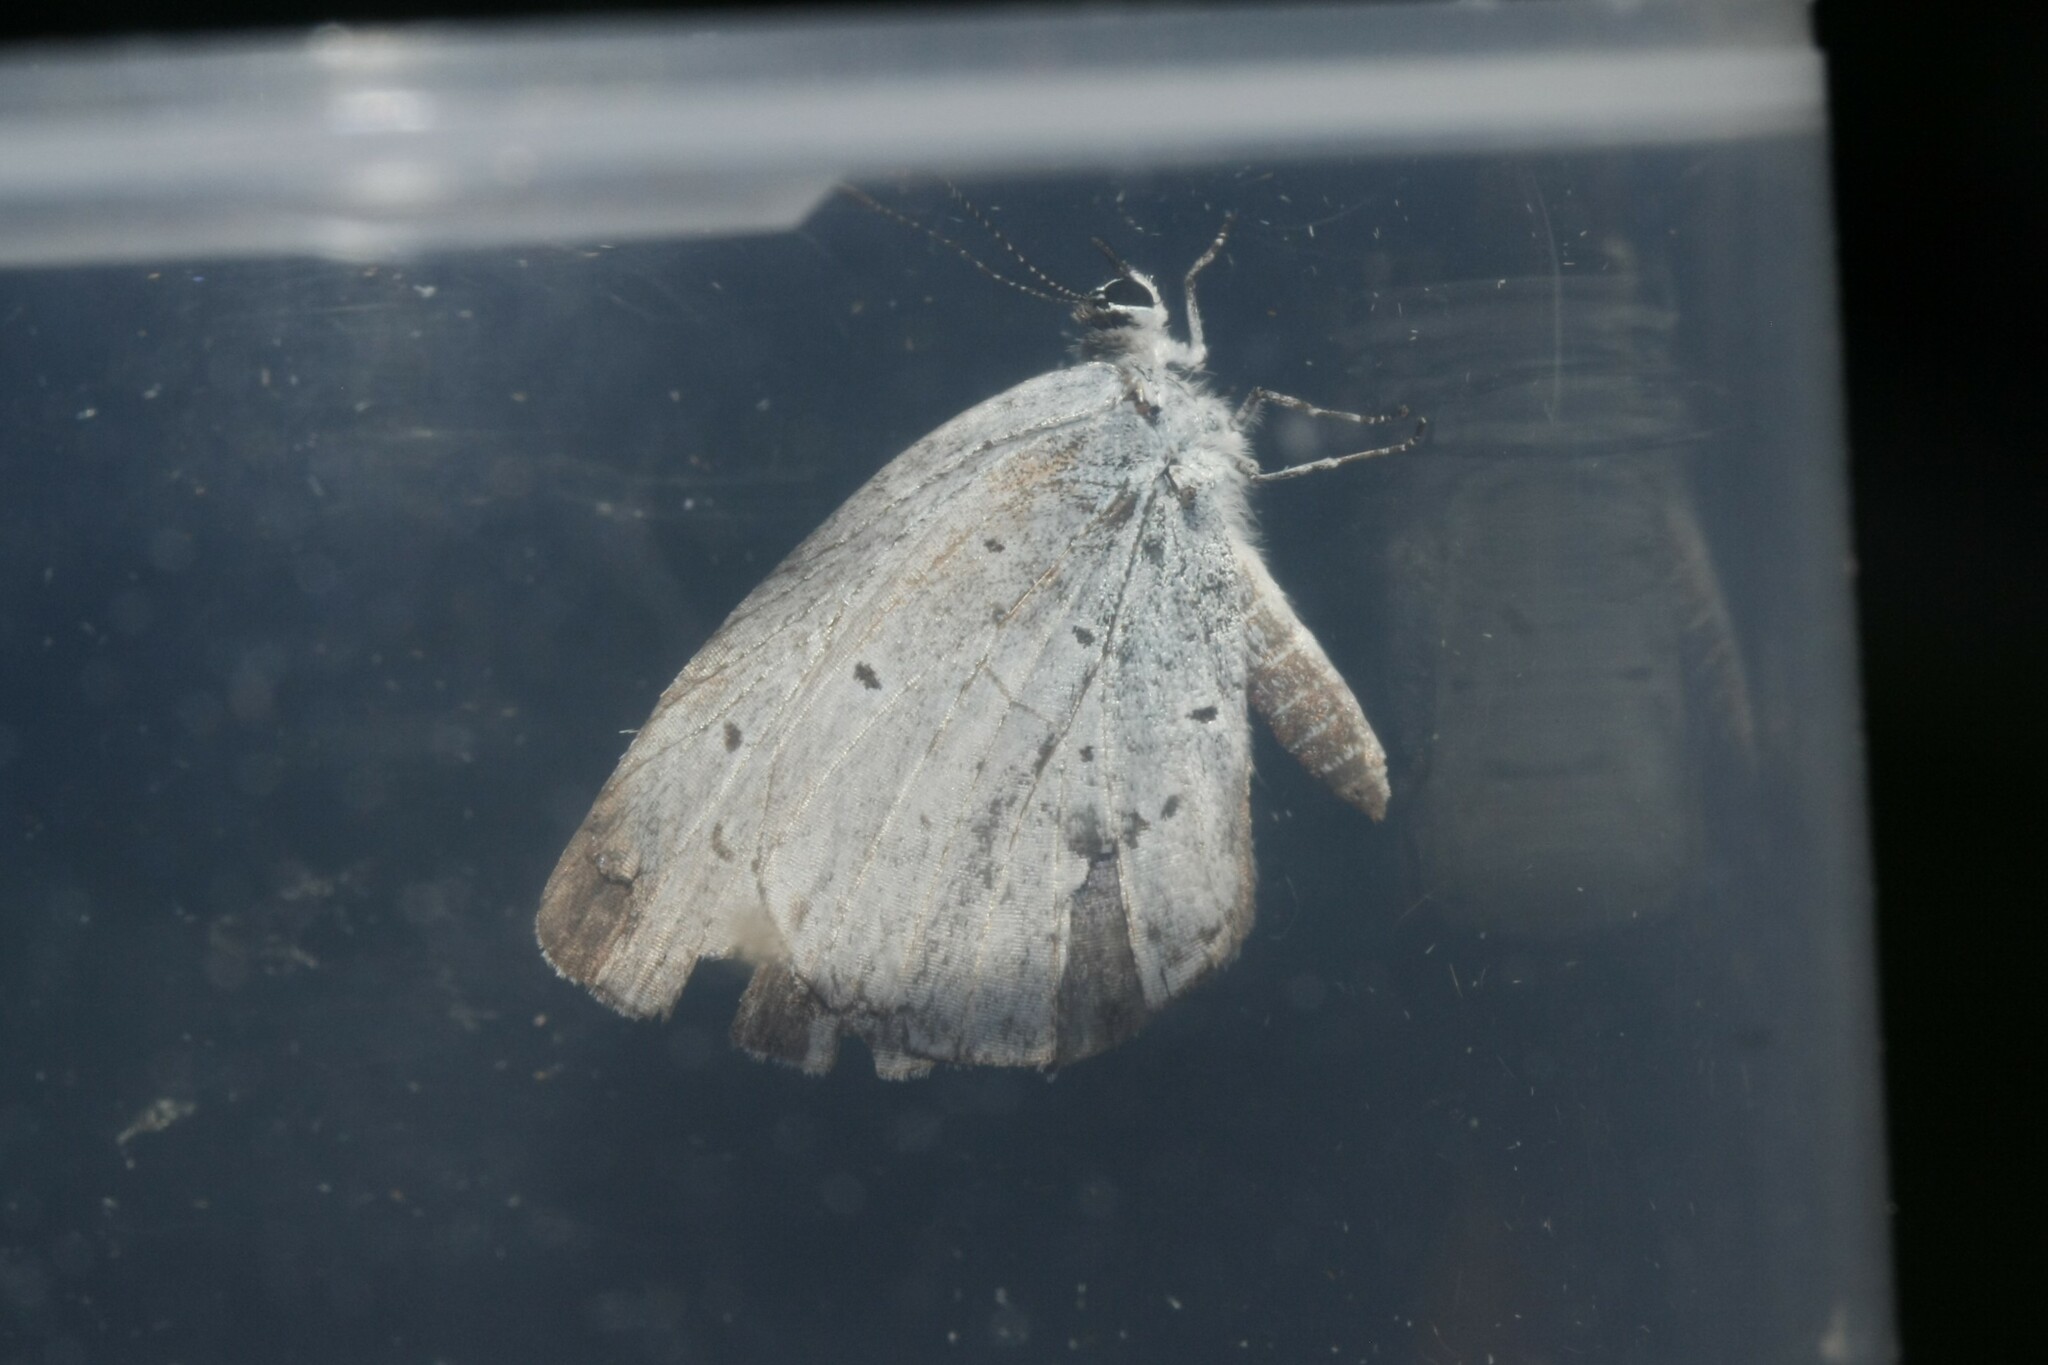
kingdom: Animalia
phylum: Arthropoda
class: Insecta
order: Lepidoptera
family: Lycaenidae
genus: Celastrina
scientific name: Celastrina argiolus
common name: Holly blue
